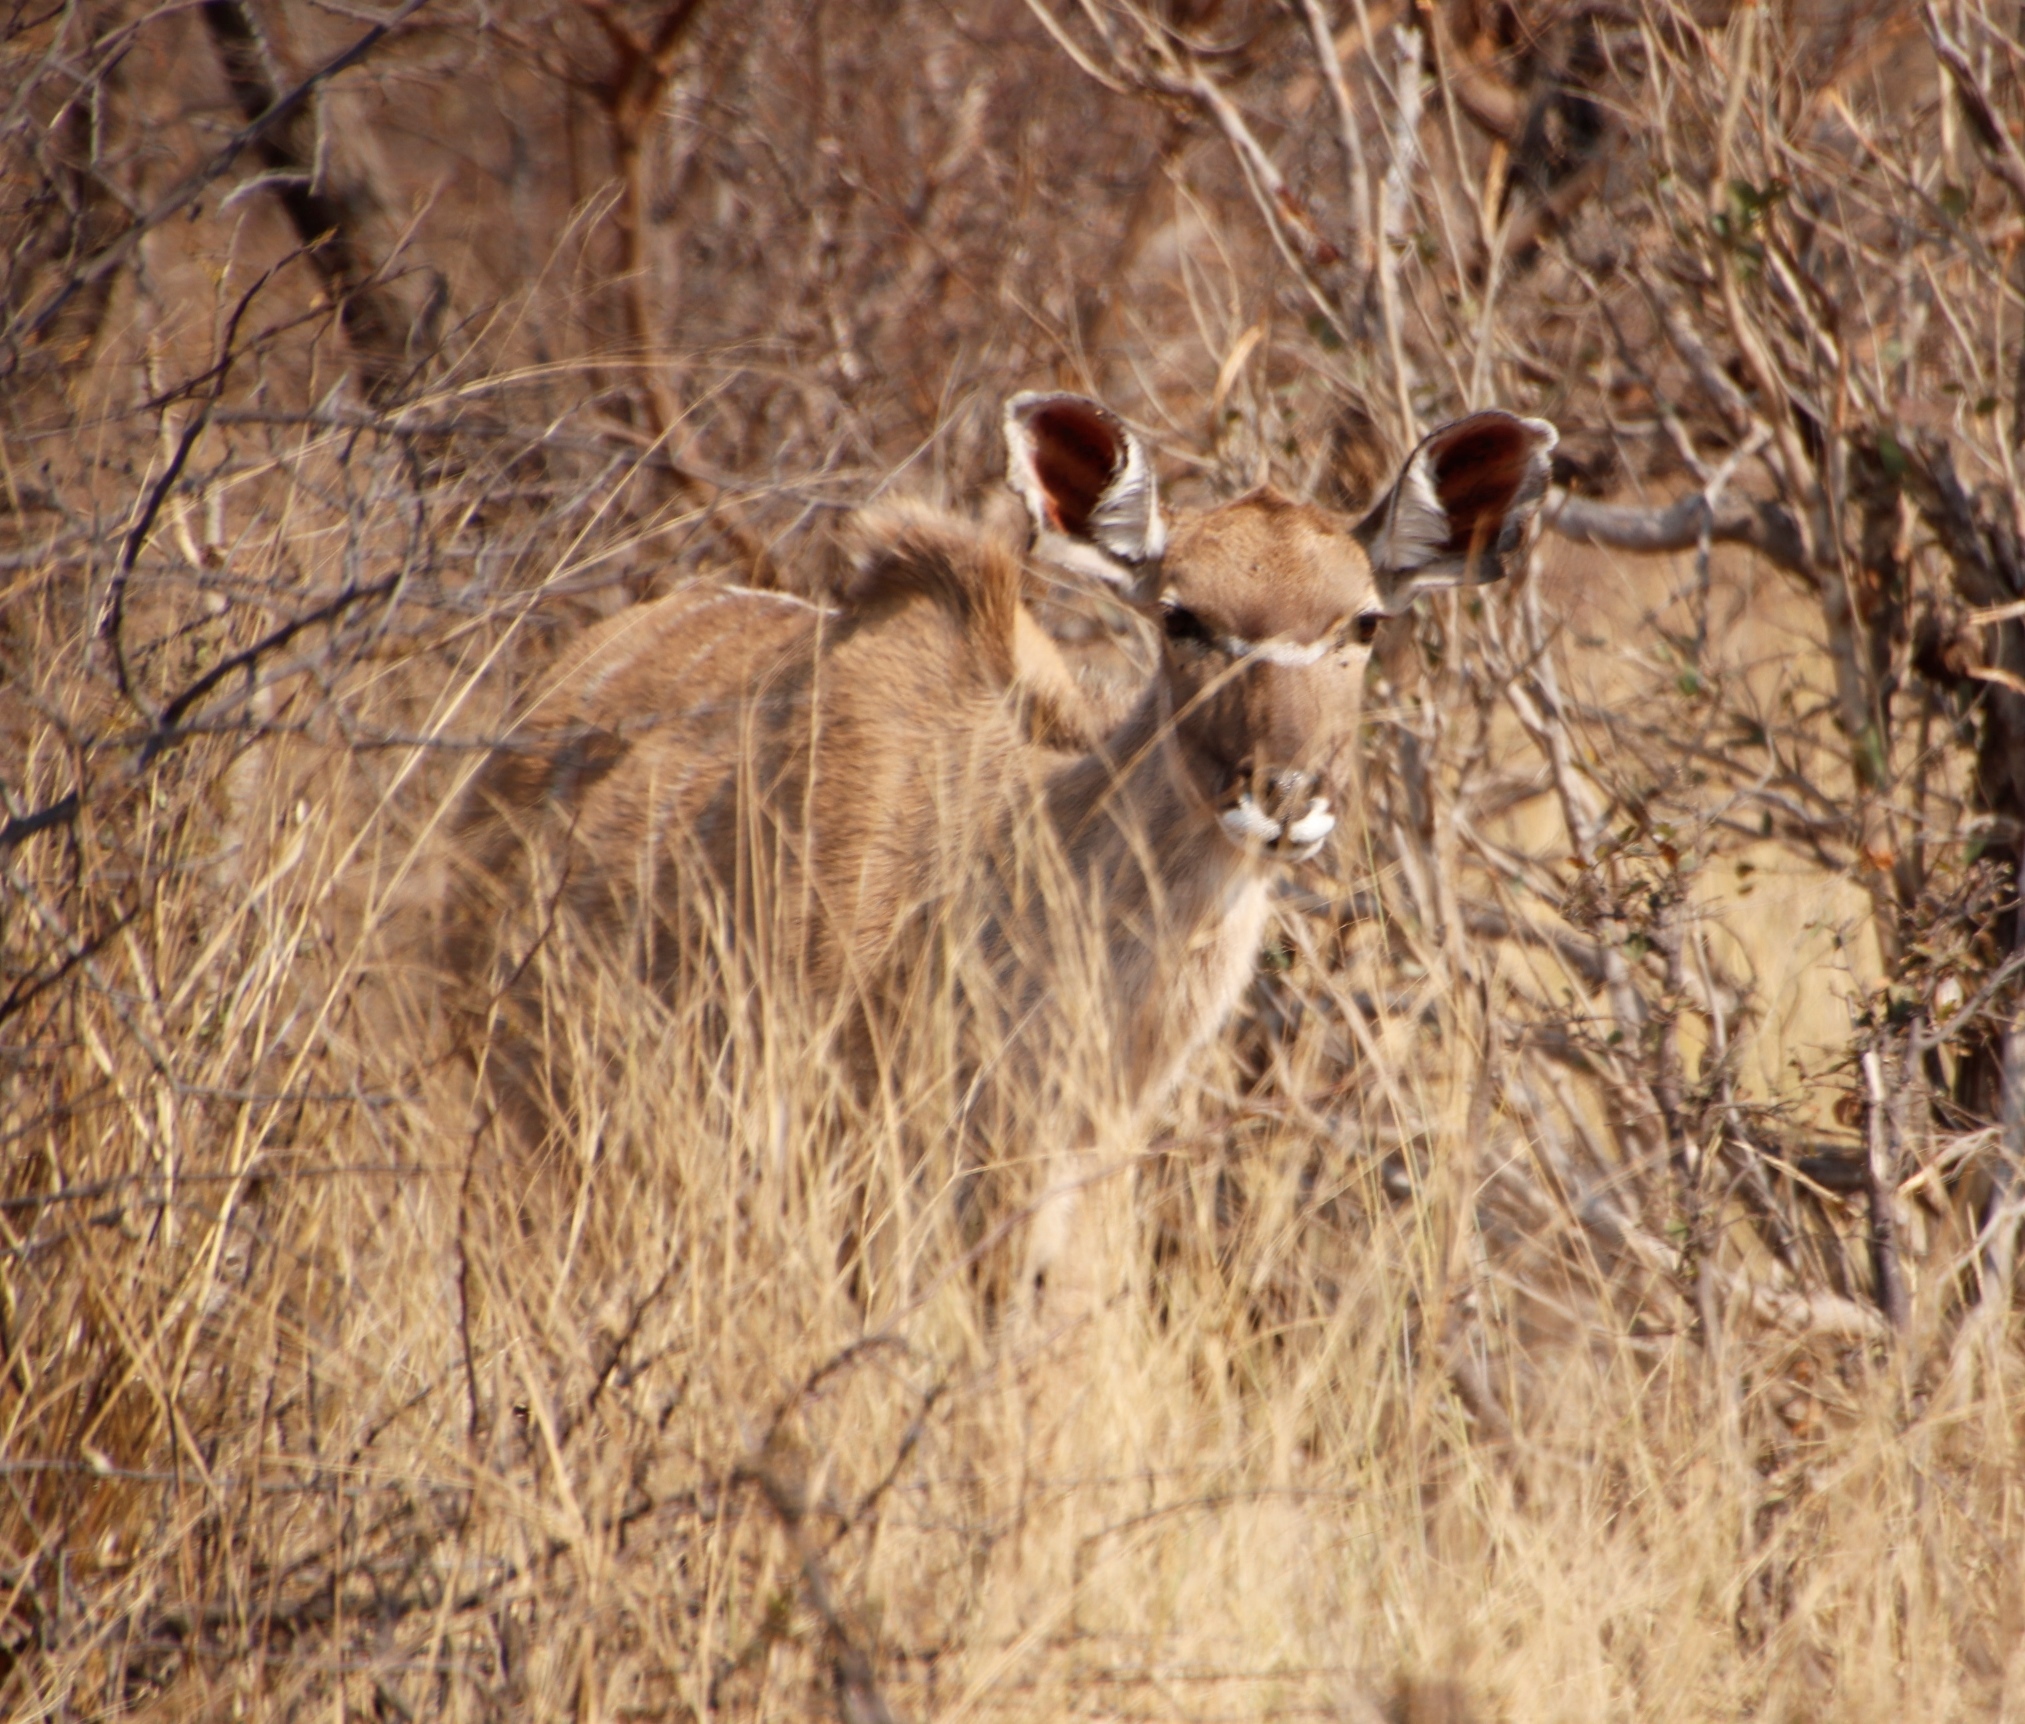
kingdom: Animalia
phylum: Chordata
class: Mammalia
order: Artiodactyla
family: Bovidae
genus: Tragelaphus
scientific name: Tragelaphus strepsiceros
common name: Greater kudu
